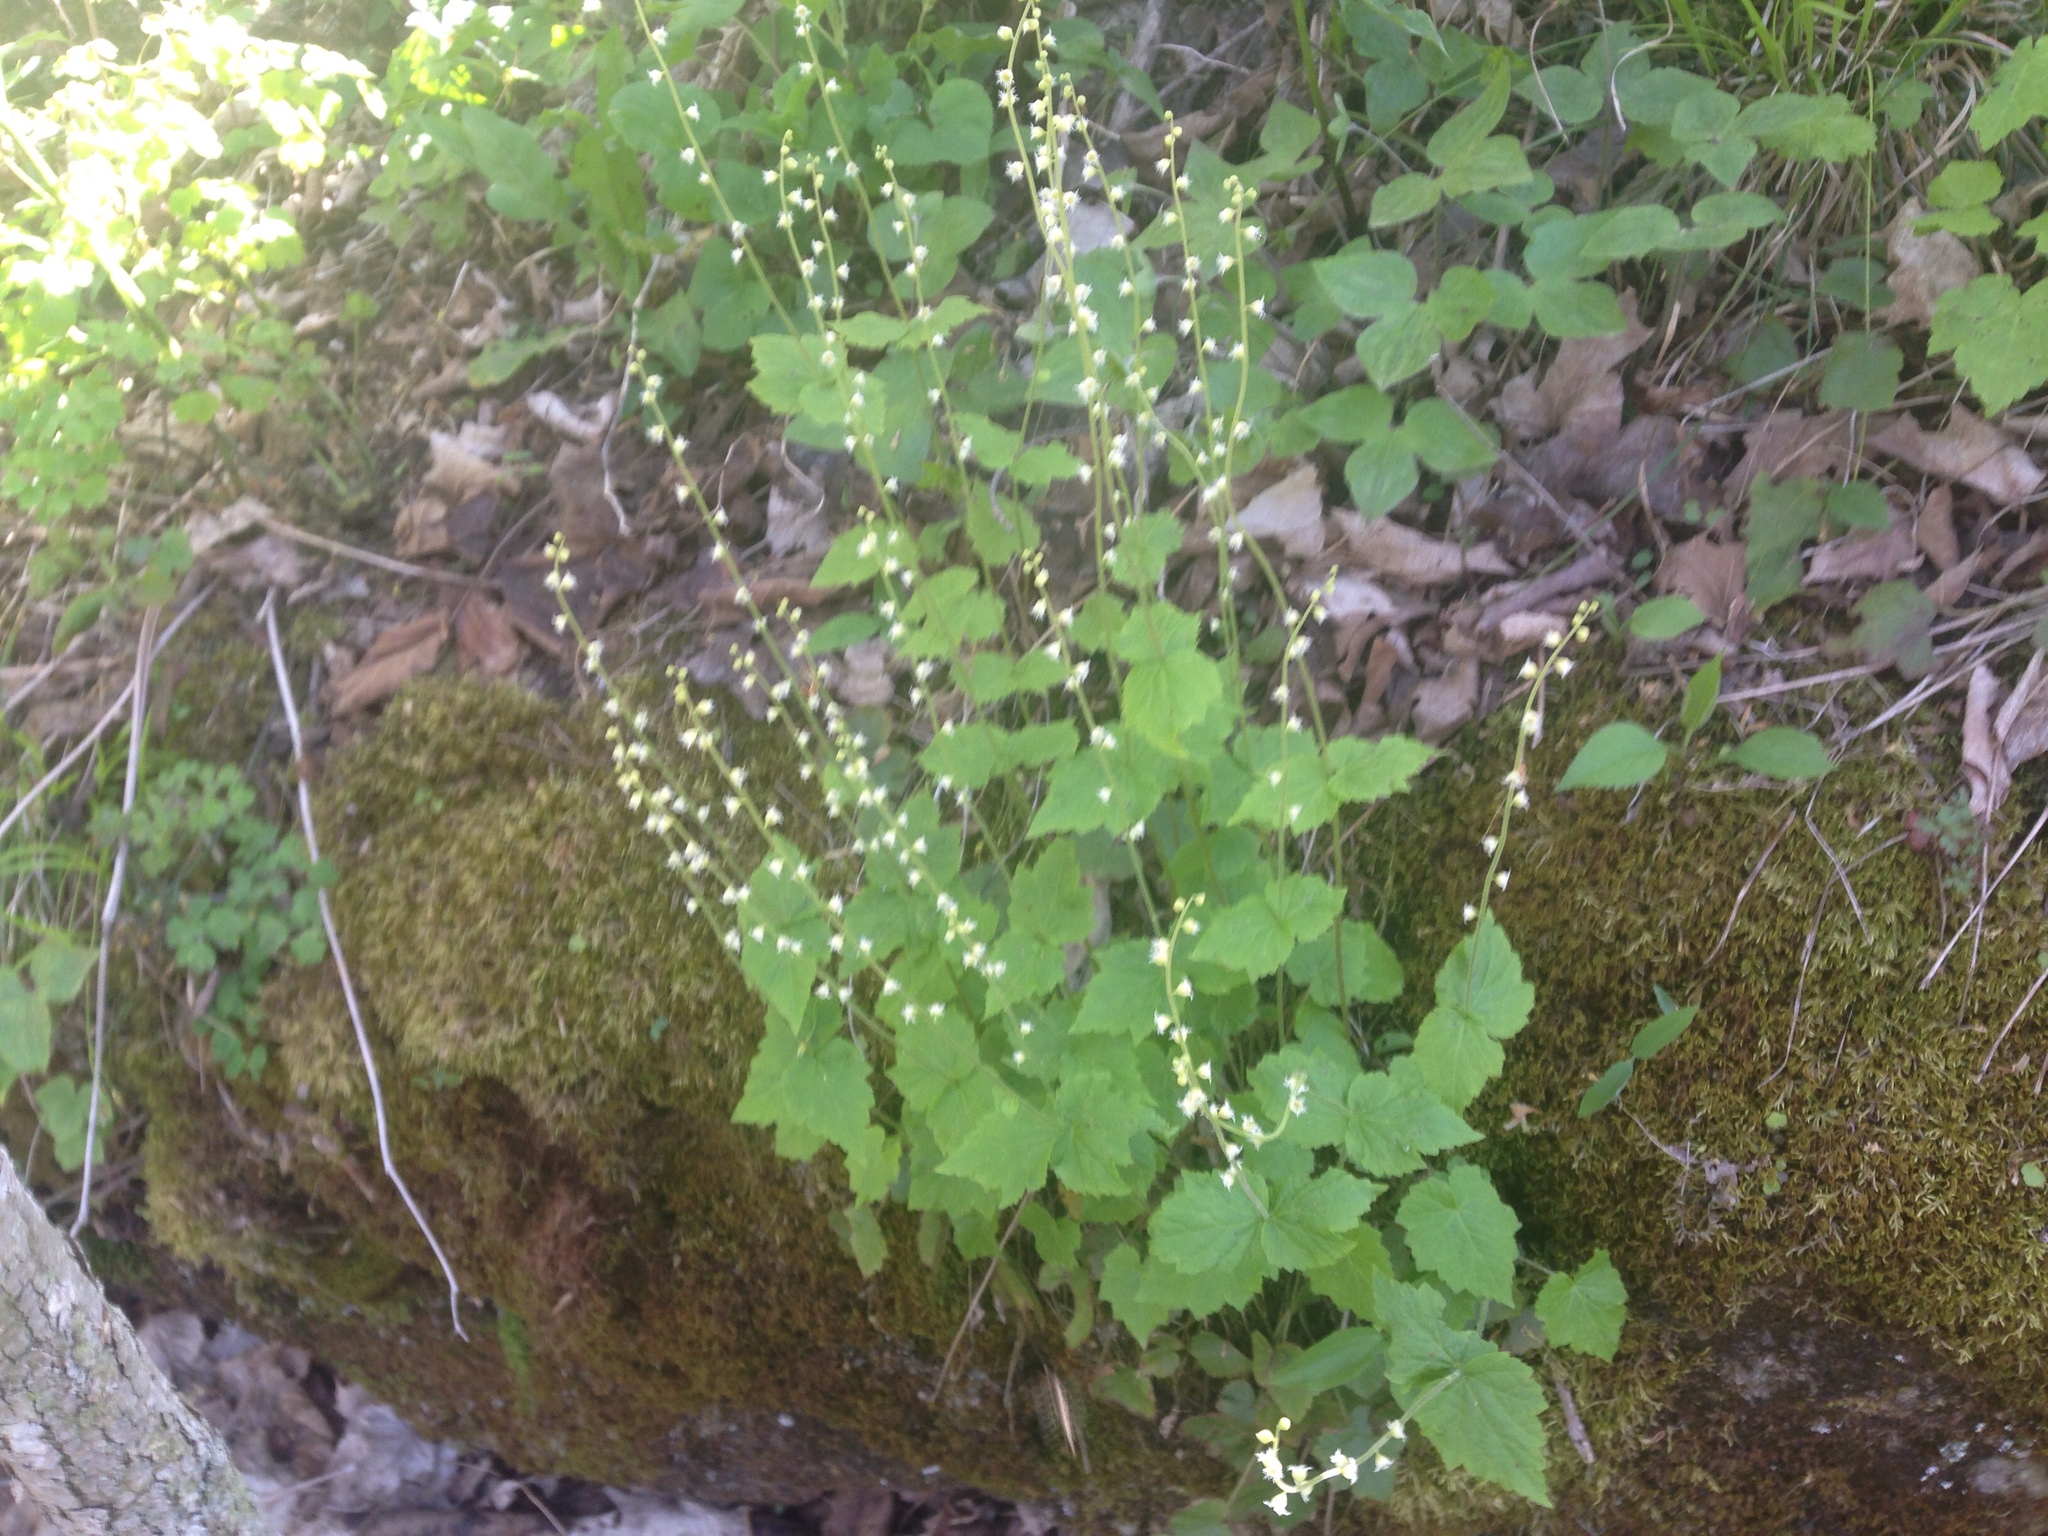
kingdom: Plantae
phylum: Tracheophyta
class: Magnoliopsida
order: Saxifragales
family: Saxifragaceae
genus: Mitella
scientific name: Mitella diphylla
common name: Coolwort
